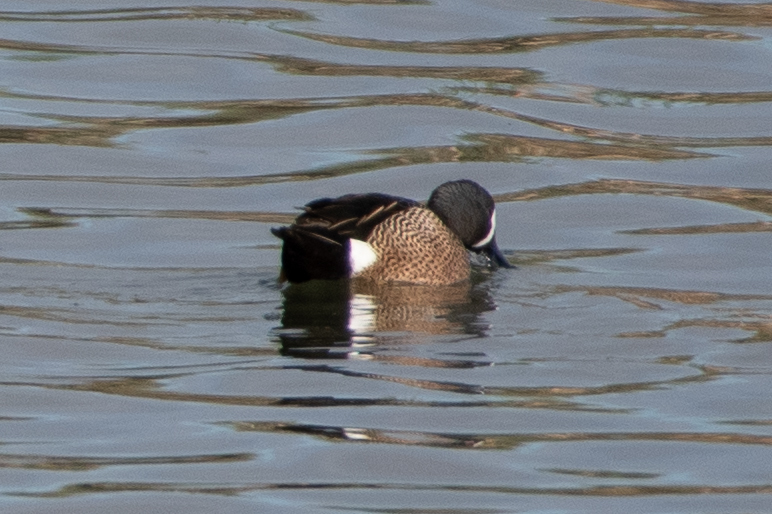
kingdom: Animalia
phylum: Chordata
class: Aves
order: Anseriformes
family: Anatidae
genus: Spatula
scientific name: Spatula discors
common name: Blue-winged teal
